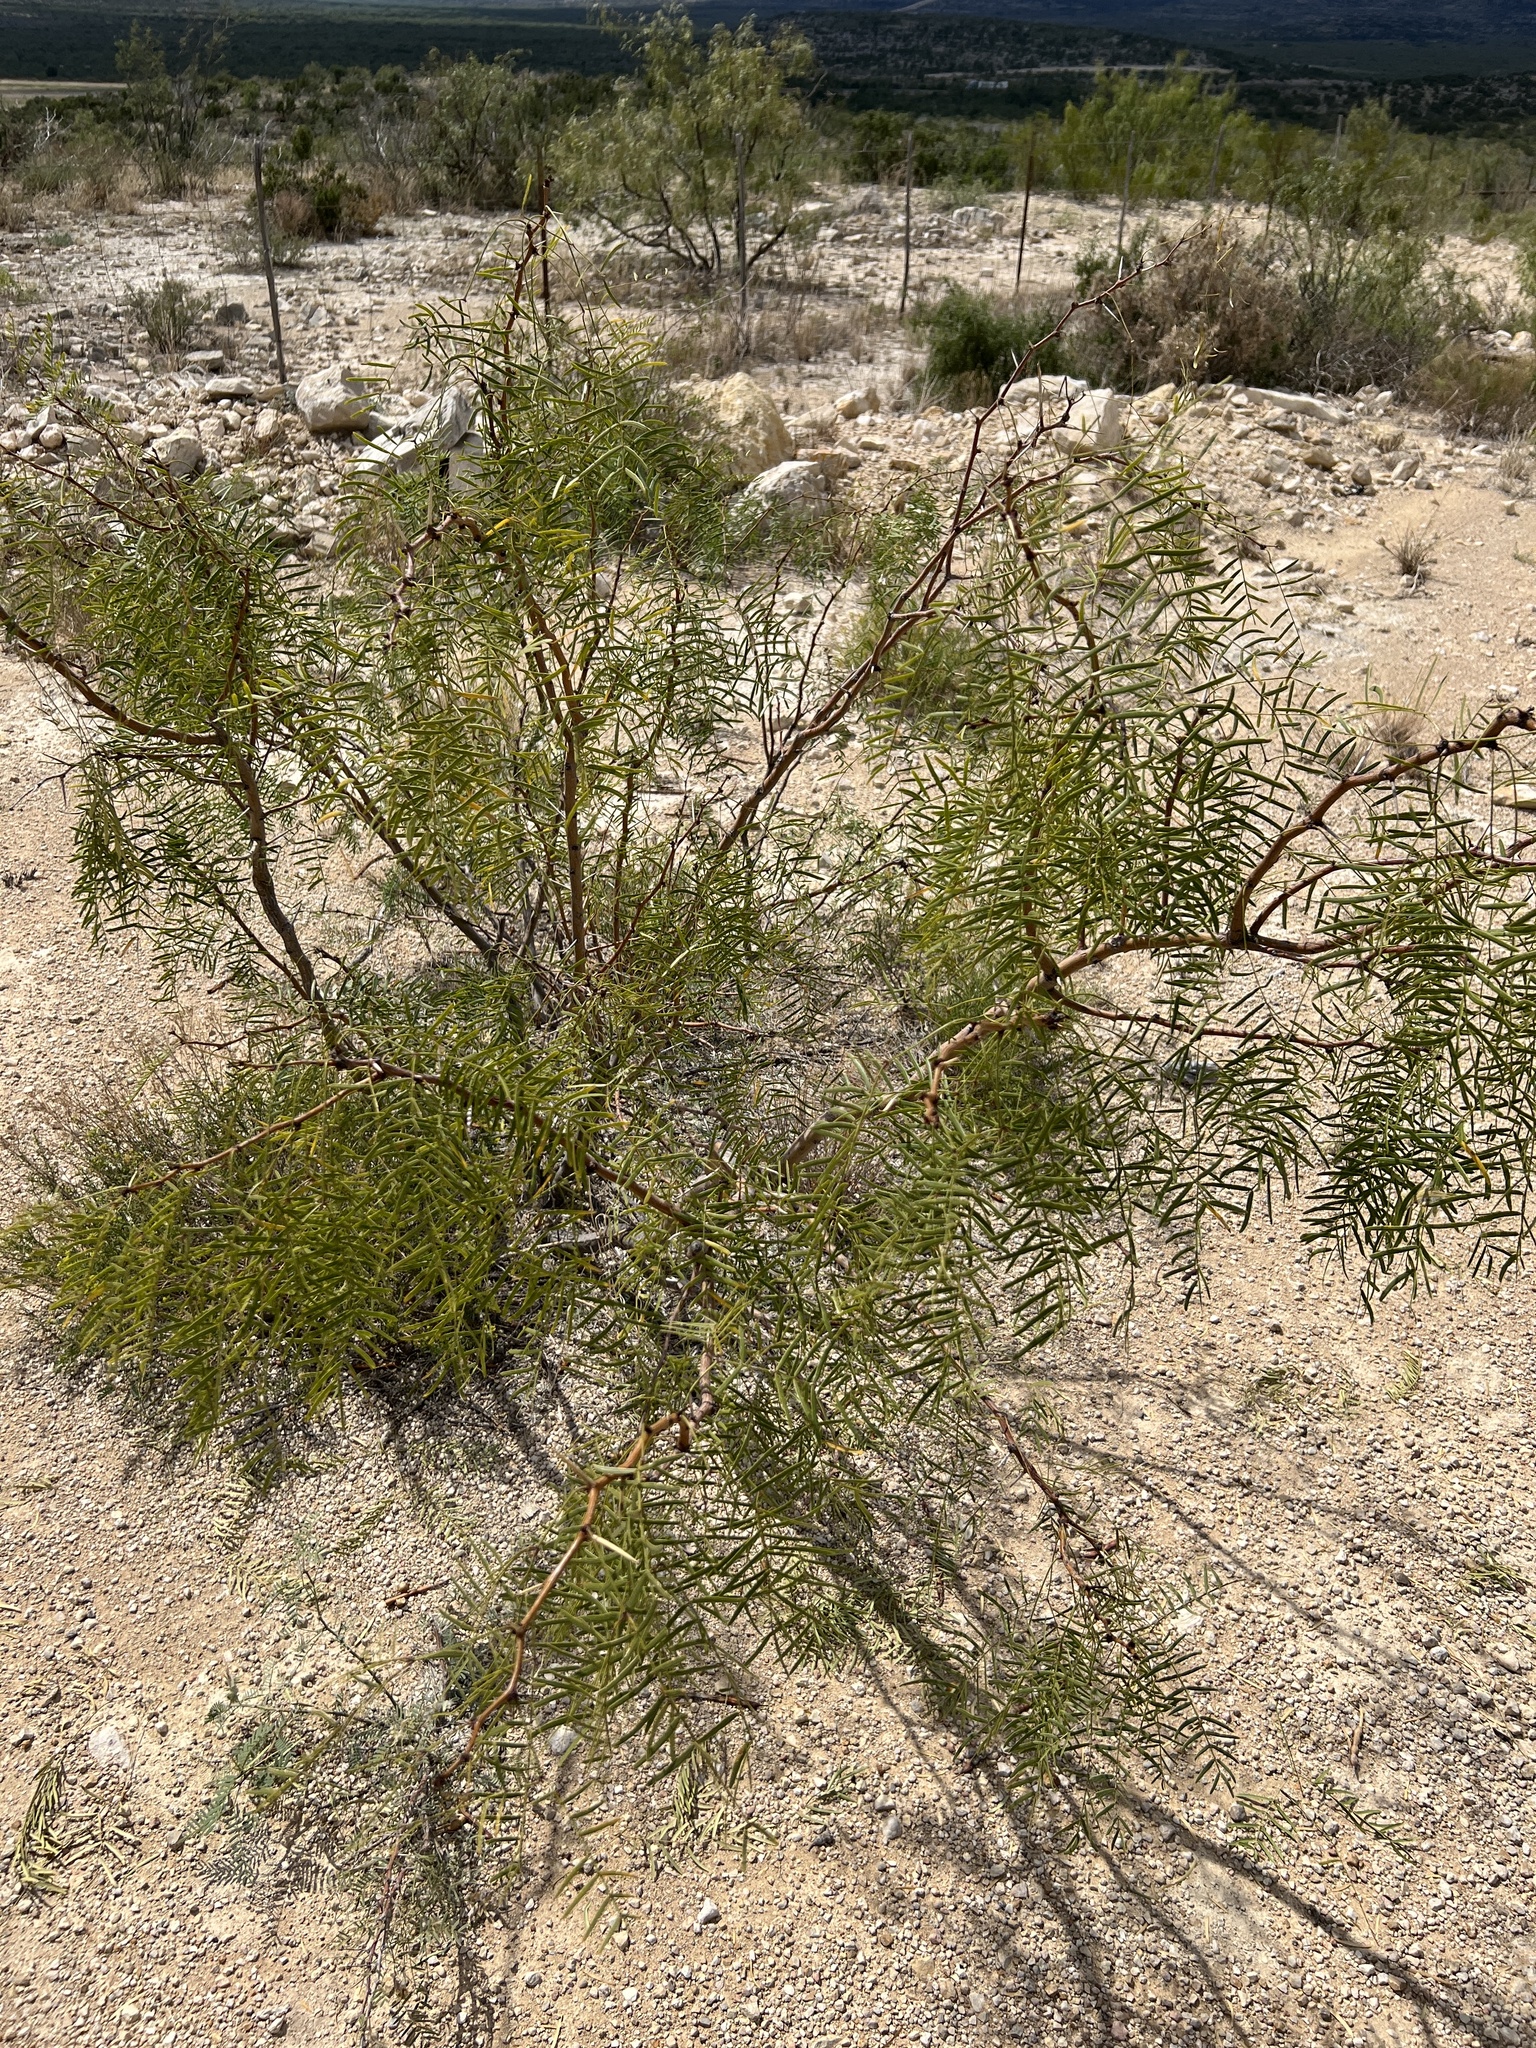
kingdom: Plantae
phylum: Tracheophyta
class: Magnoliopsida
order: Fabales
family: Fabaceae
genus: Prosopis
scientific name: Prosopis glandulosa
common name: Honey mesquite
